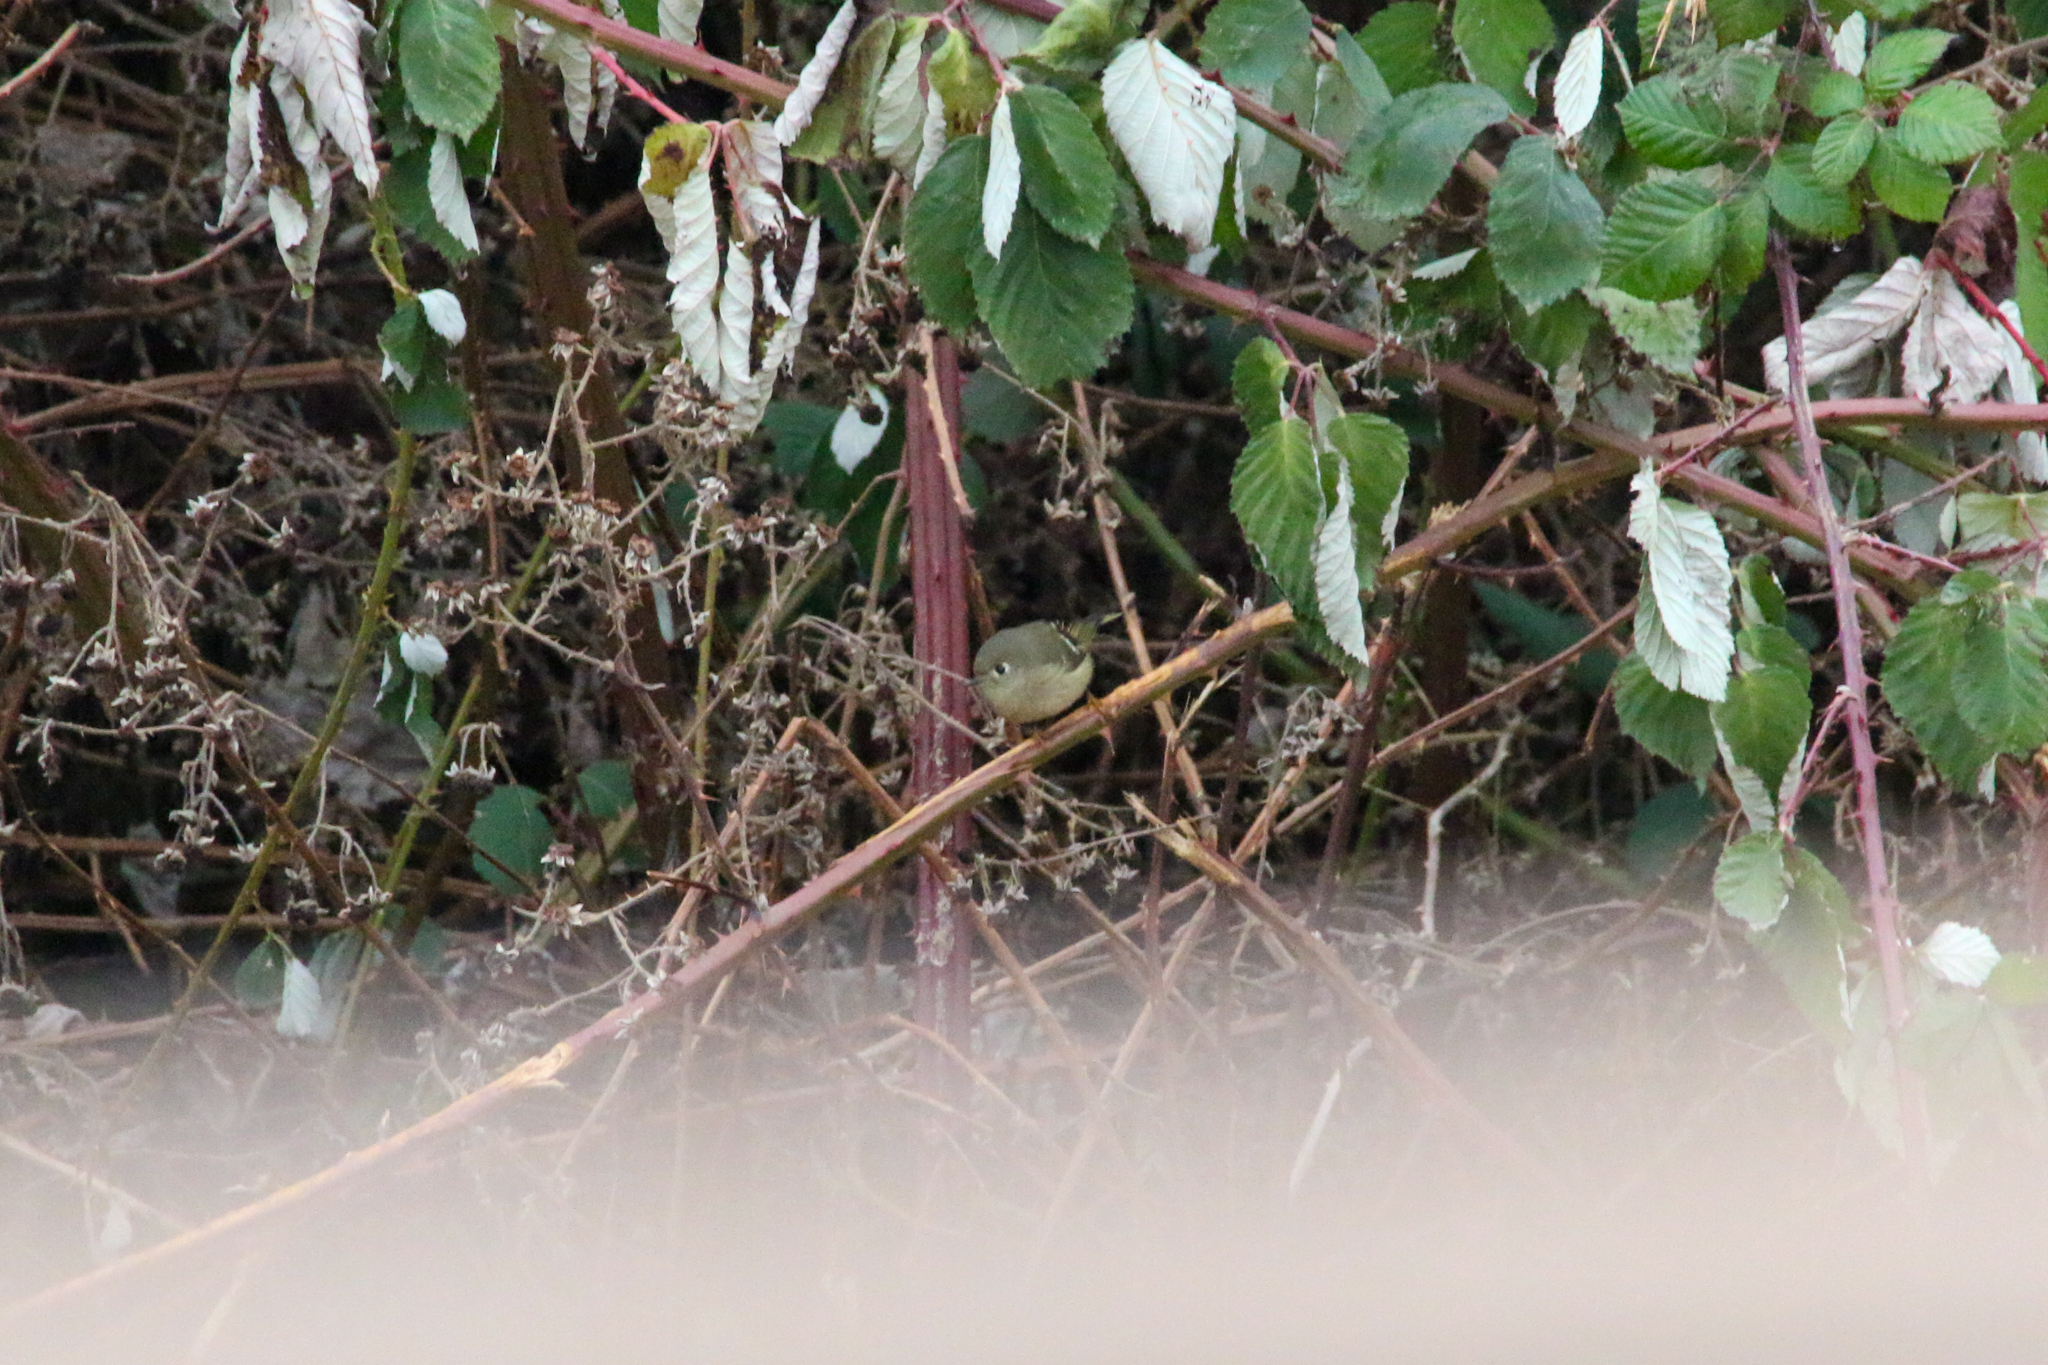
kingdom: Animalia
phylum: Chordata
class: Aves
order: Passeriformes
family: Regulidae
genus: Regulus
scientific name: Regulus calendula
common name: Ruby-crowned kinglet
